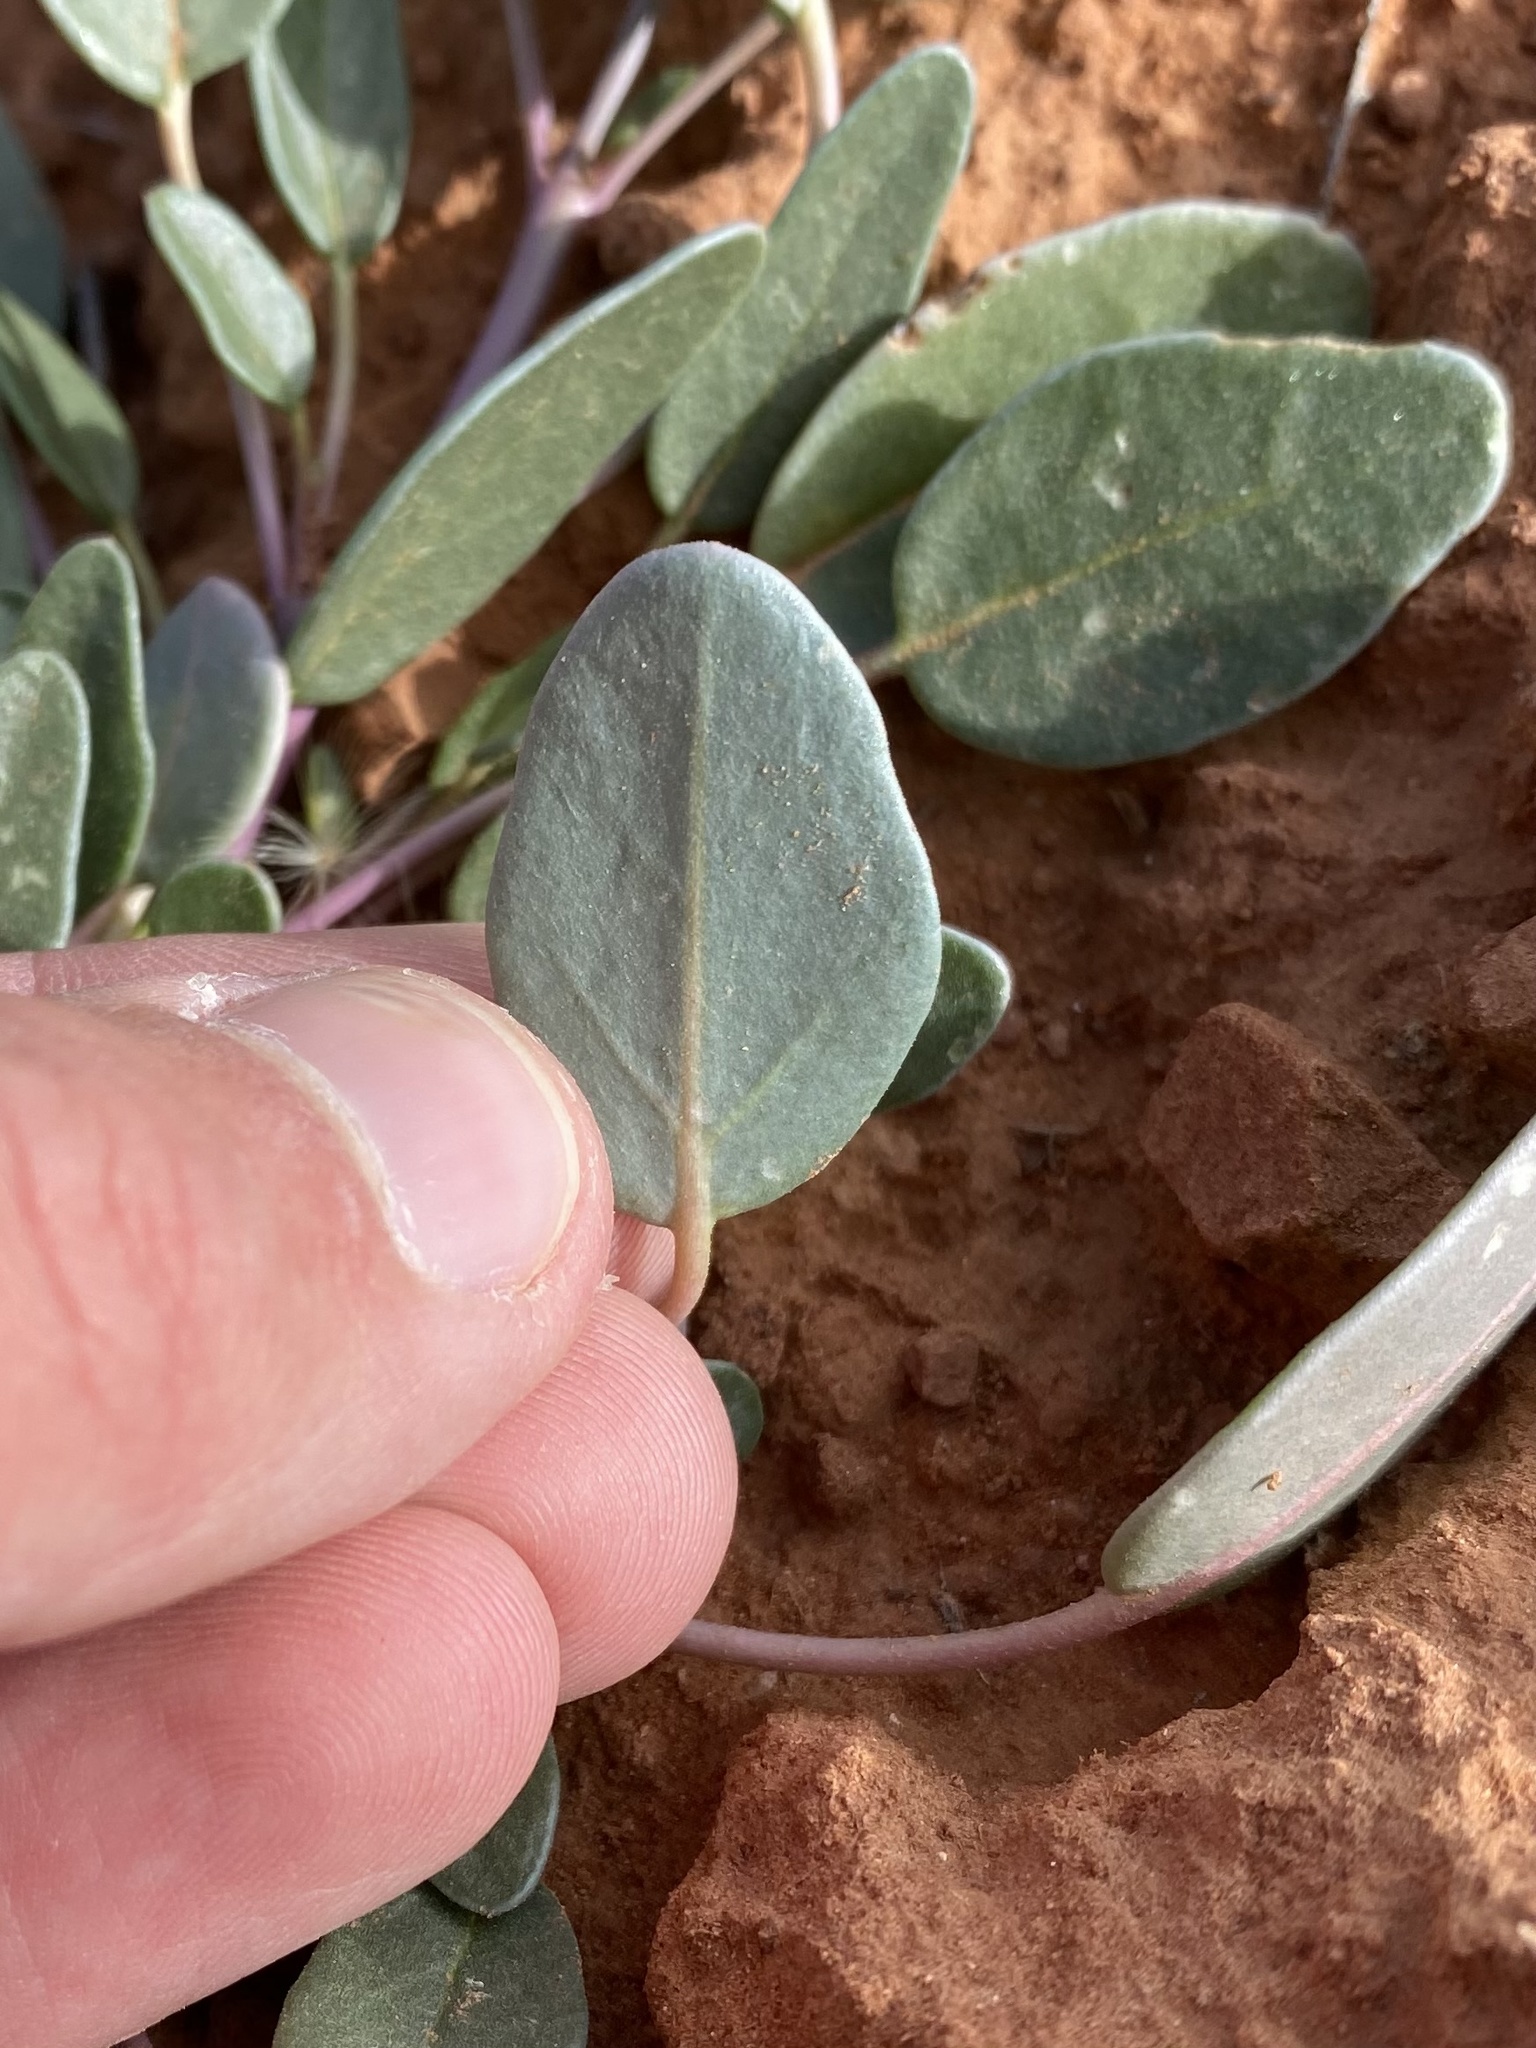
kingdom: Plantae
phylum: Tracheophyta
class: Magnoliopsida
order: Caryophyllales
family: Nyctaginaceae
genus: Abronia
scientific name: Abronia elliptica
